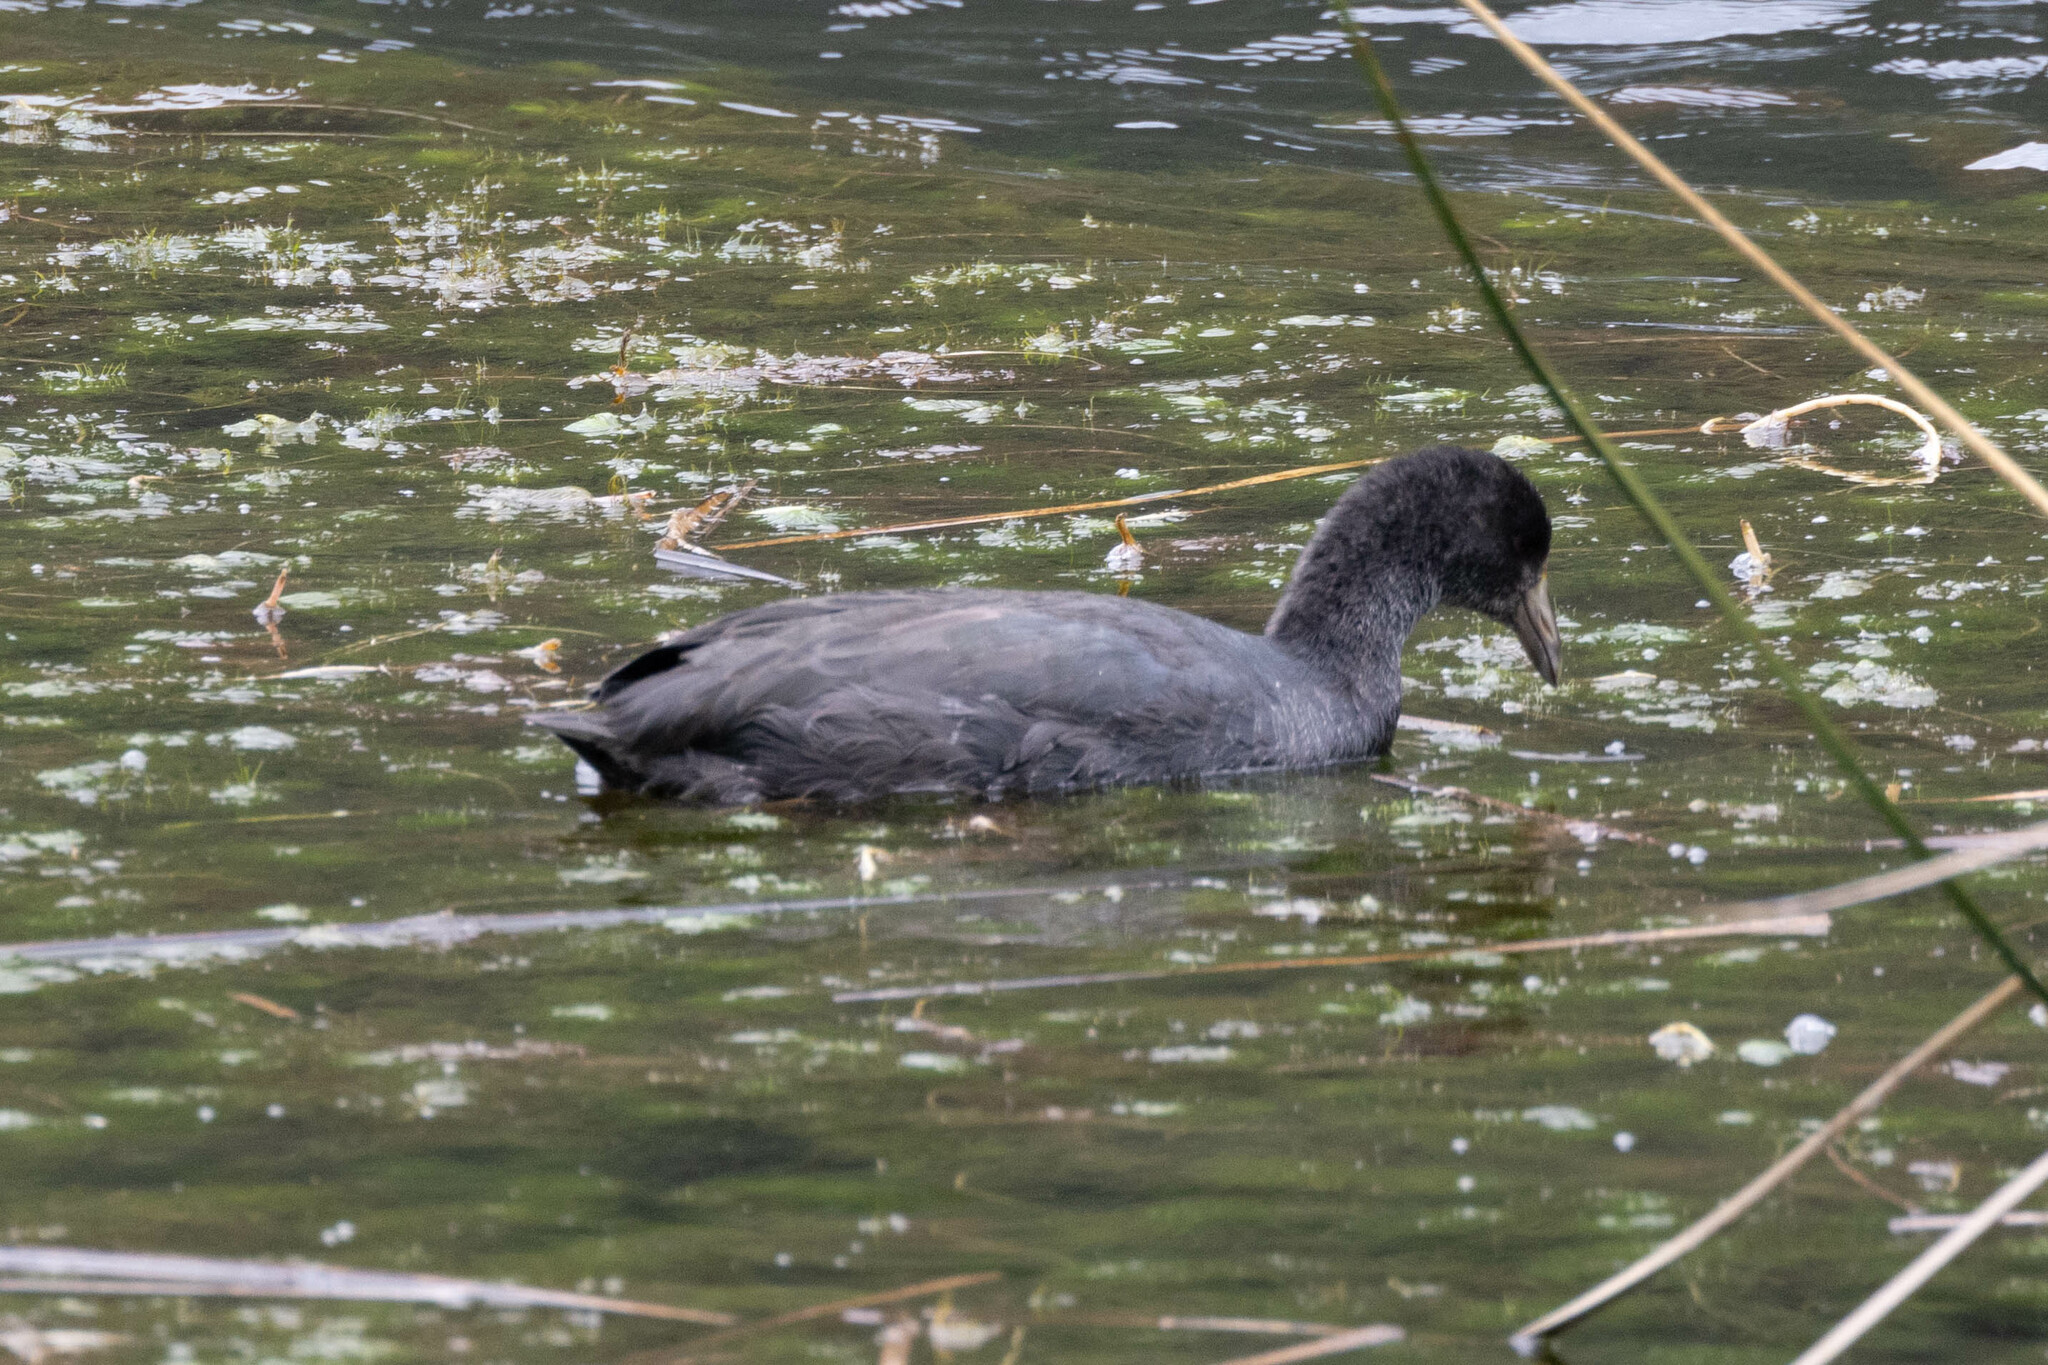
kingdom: Animalia
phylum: Chordata
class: Aves
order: Gruiformes
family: Rallidae
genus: Fulica
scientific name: Fulica ardesiaca
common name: Andean coot
